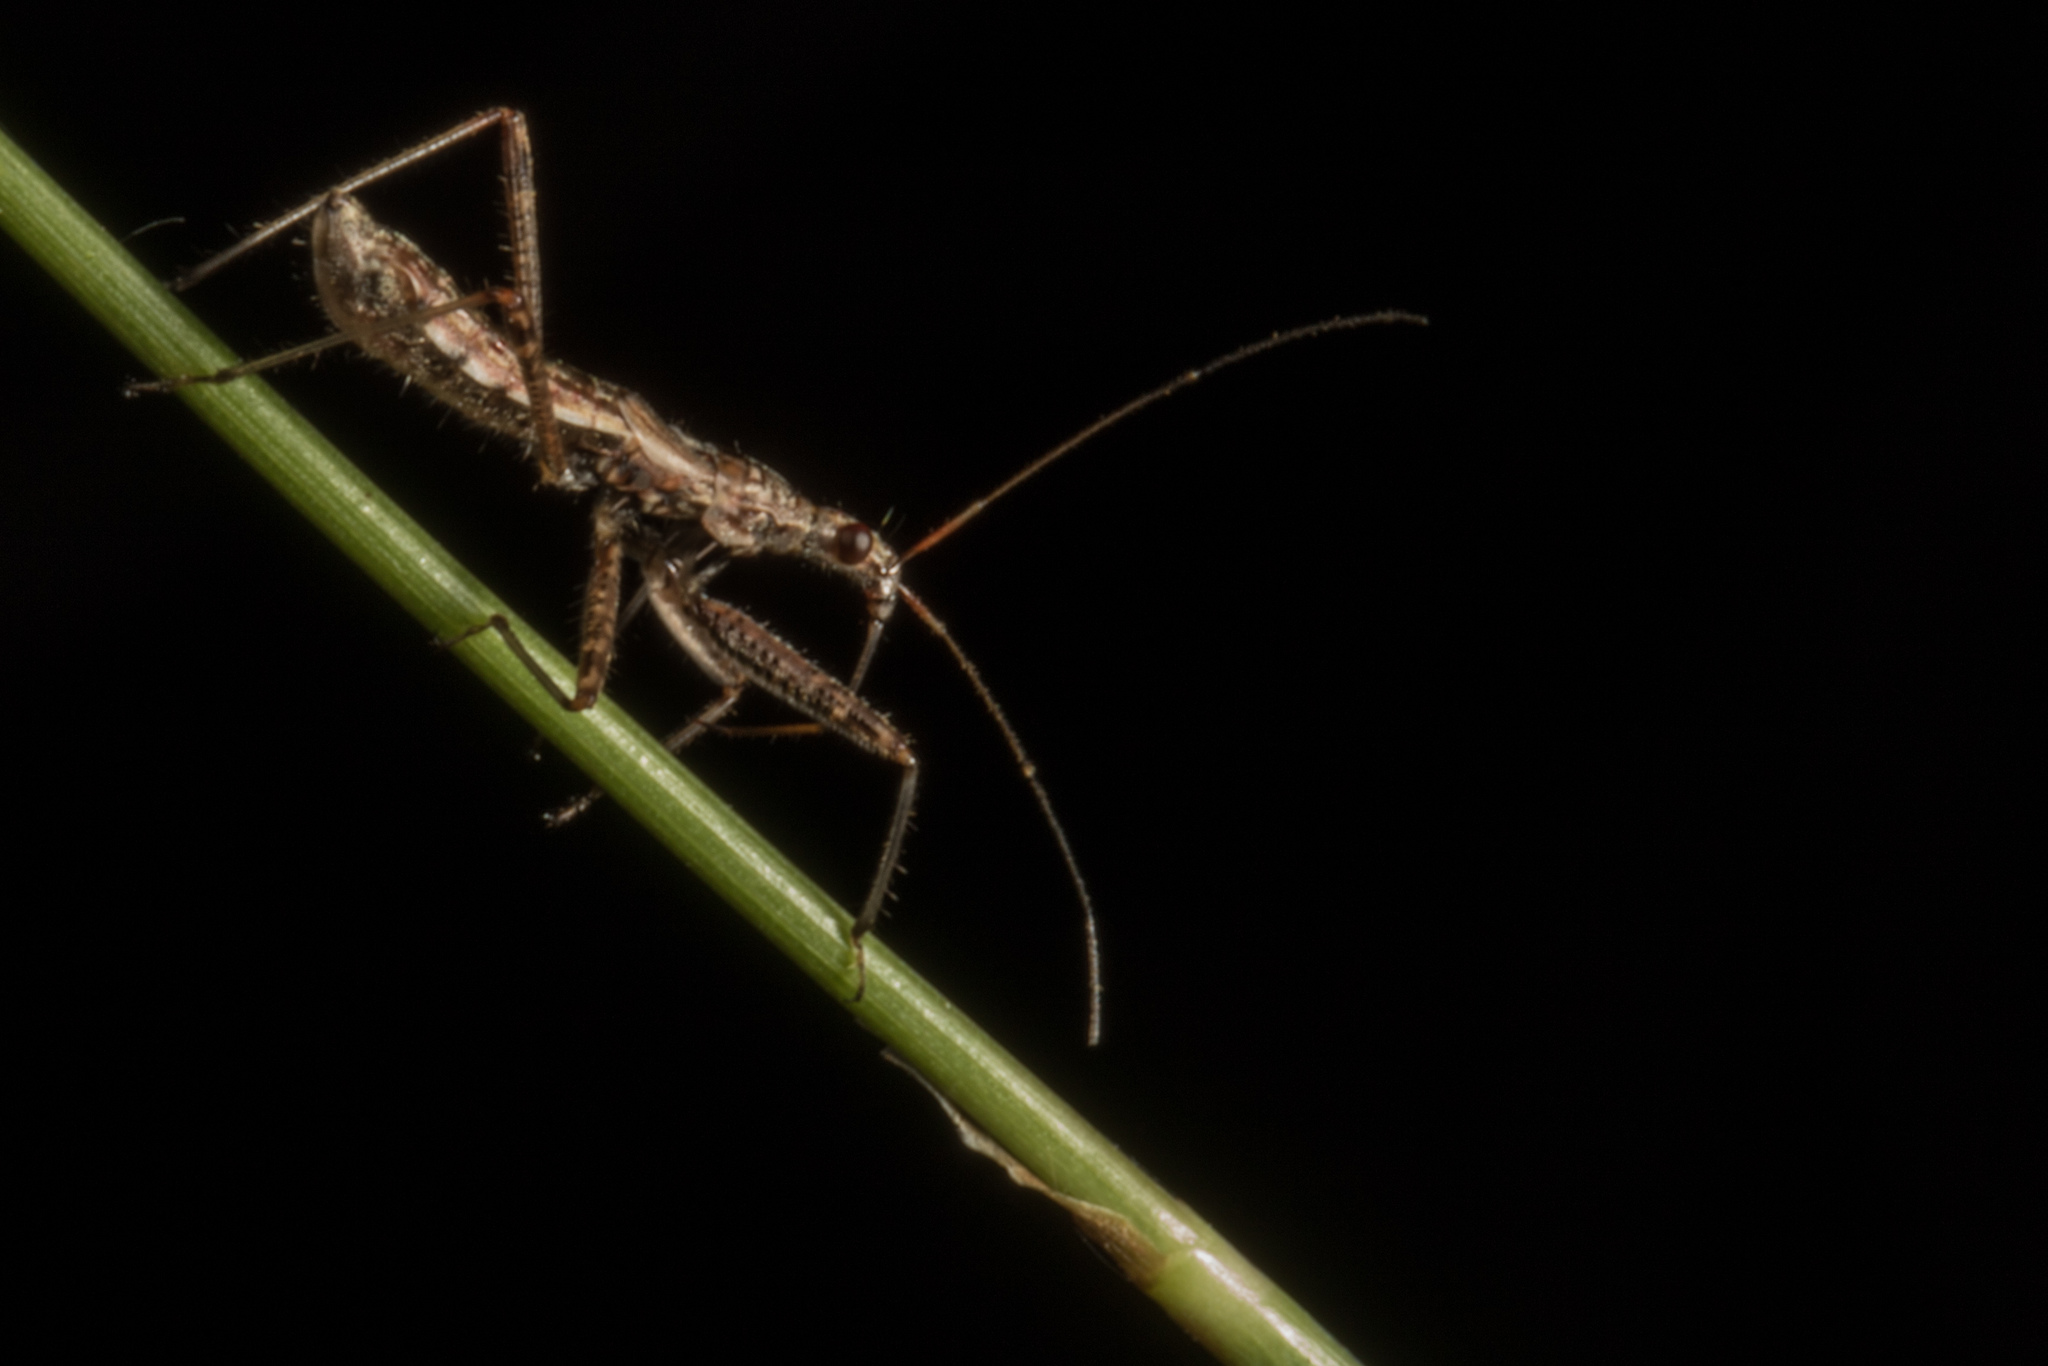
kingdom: Animalia
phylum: Arthropoda
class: Insecta
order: Hemiptera
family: Nabidae
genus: Nabis
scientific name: Nabis
